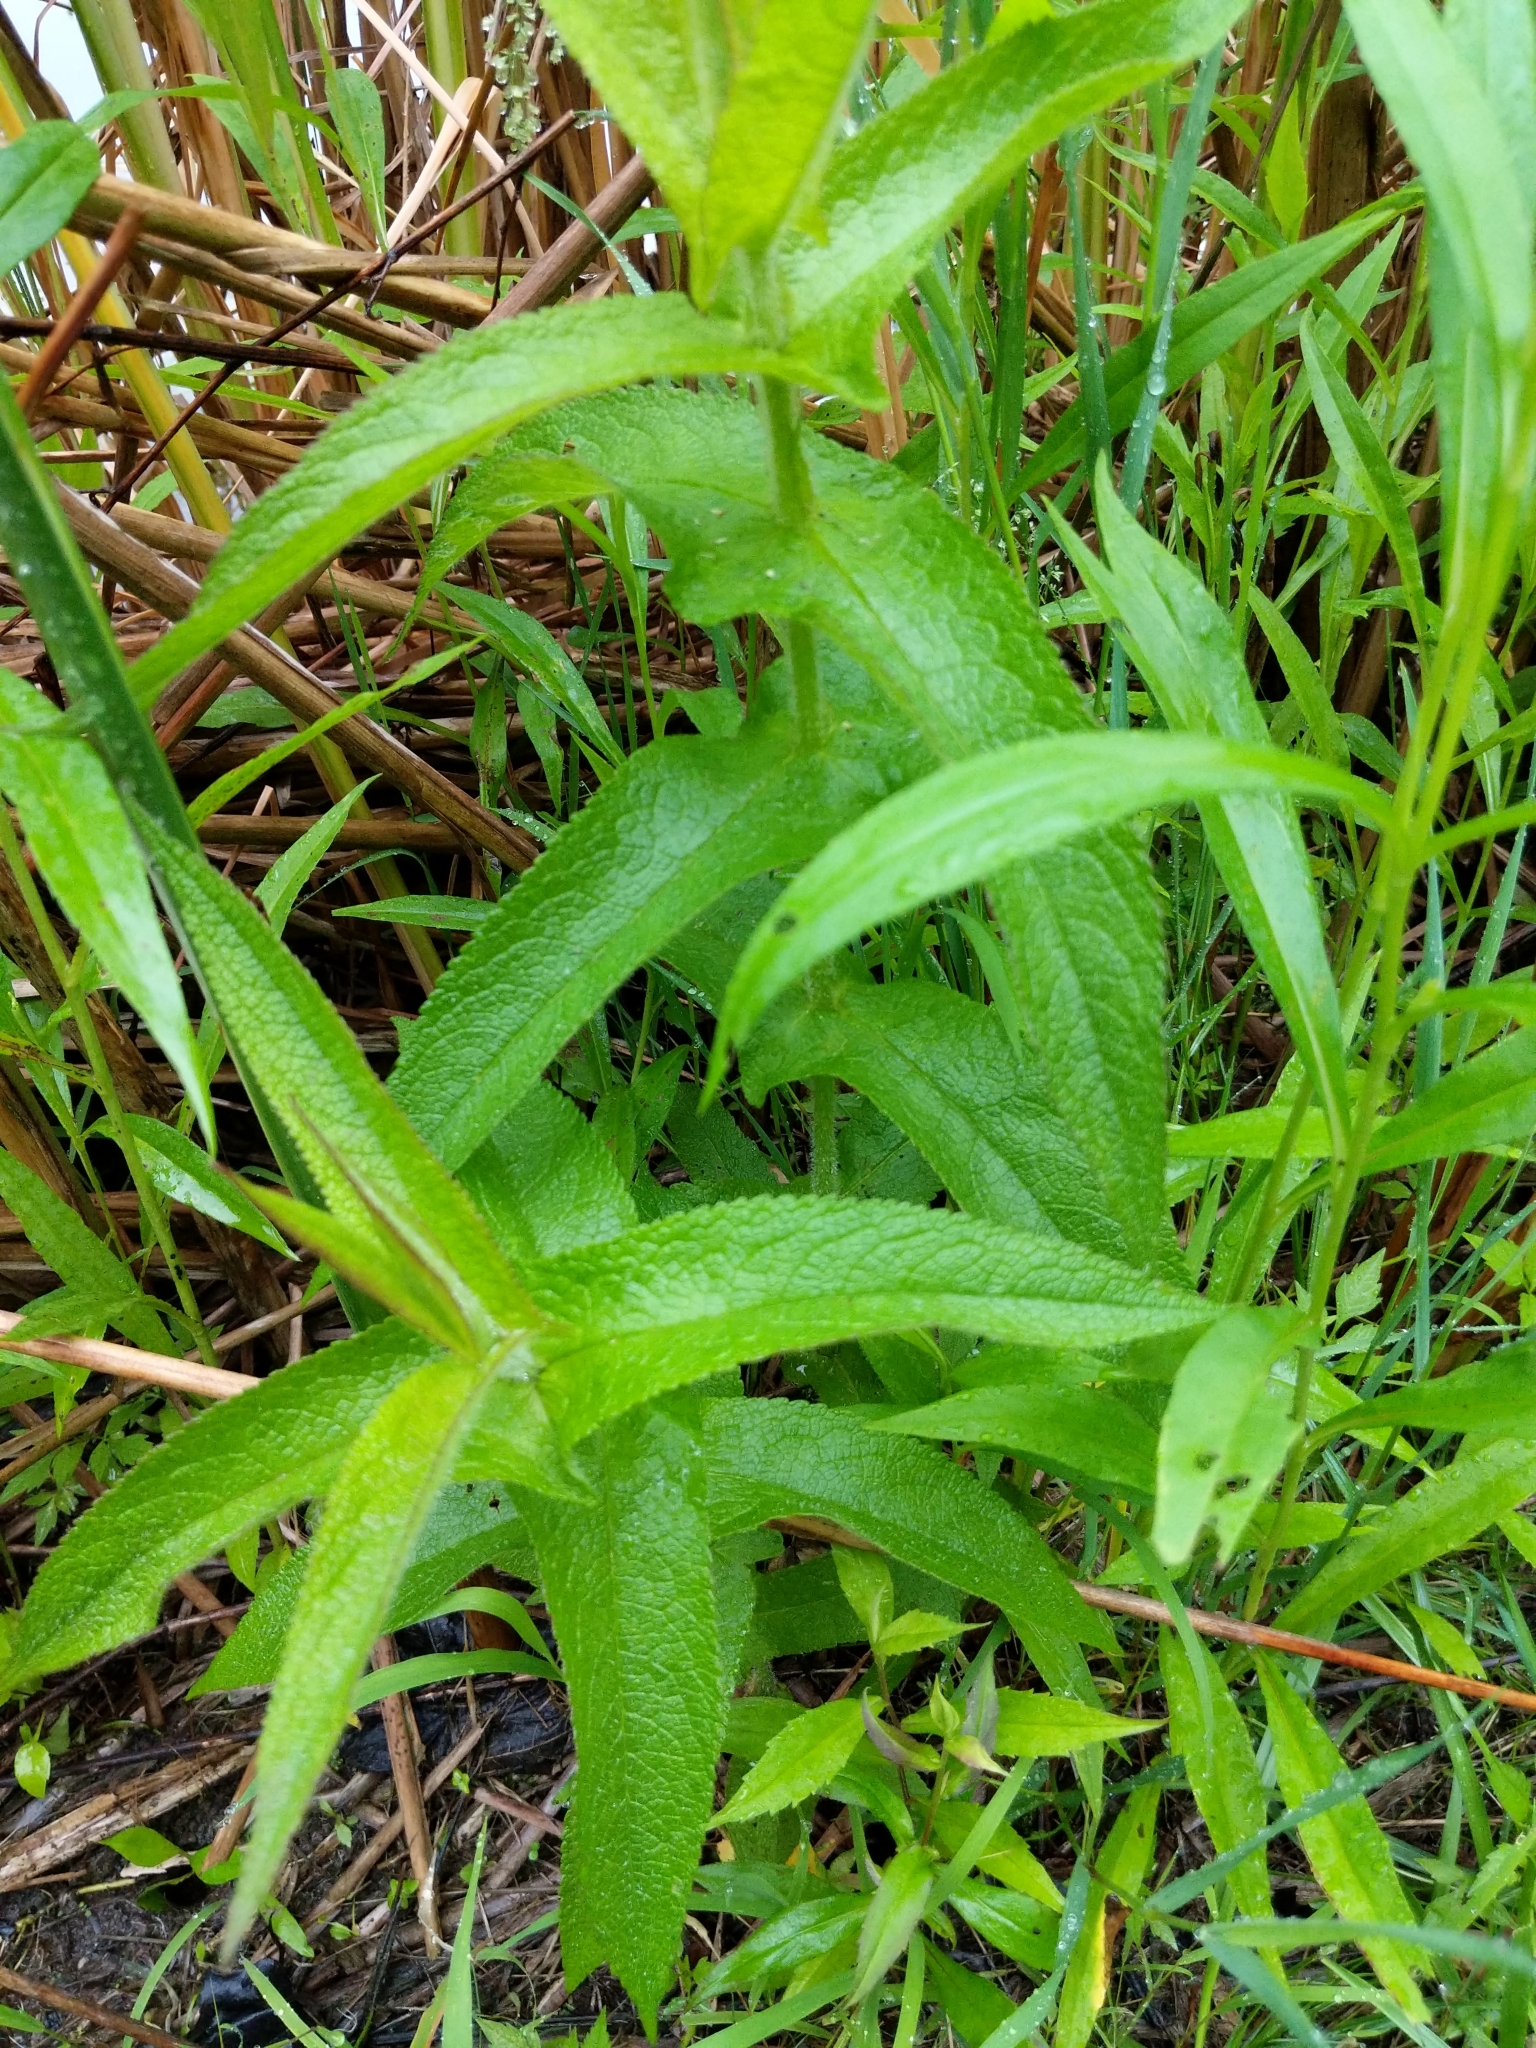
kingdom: Plantae
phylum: Tracheophyta
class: Magnoliopsida
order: Asterales
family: Asteraceae
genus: Eupatorium
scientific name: Eupatorium perfoliatum
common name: Boneset
